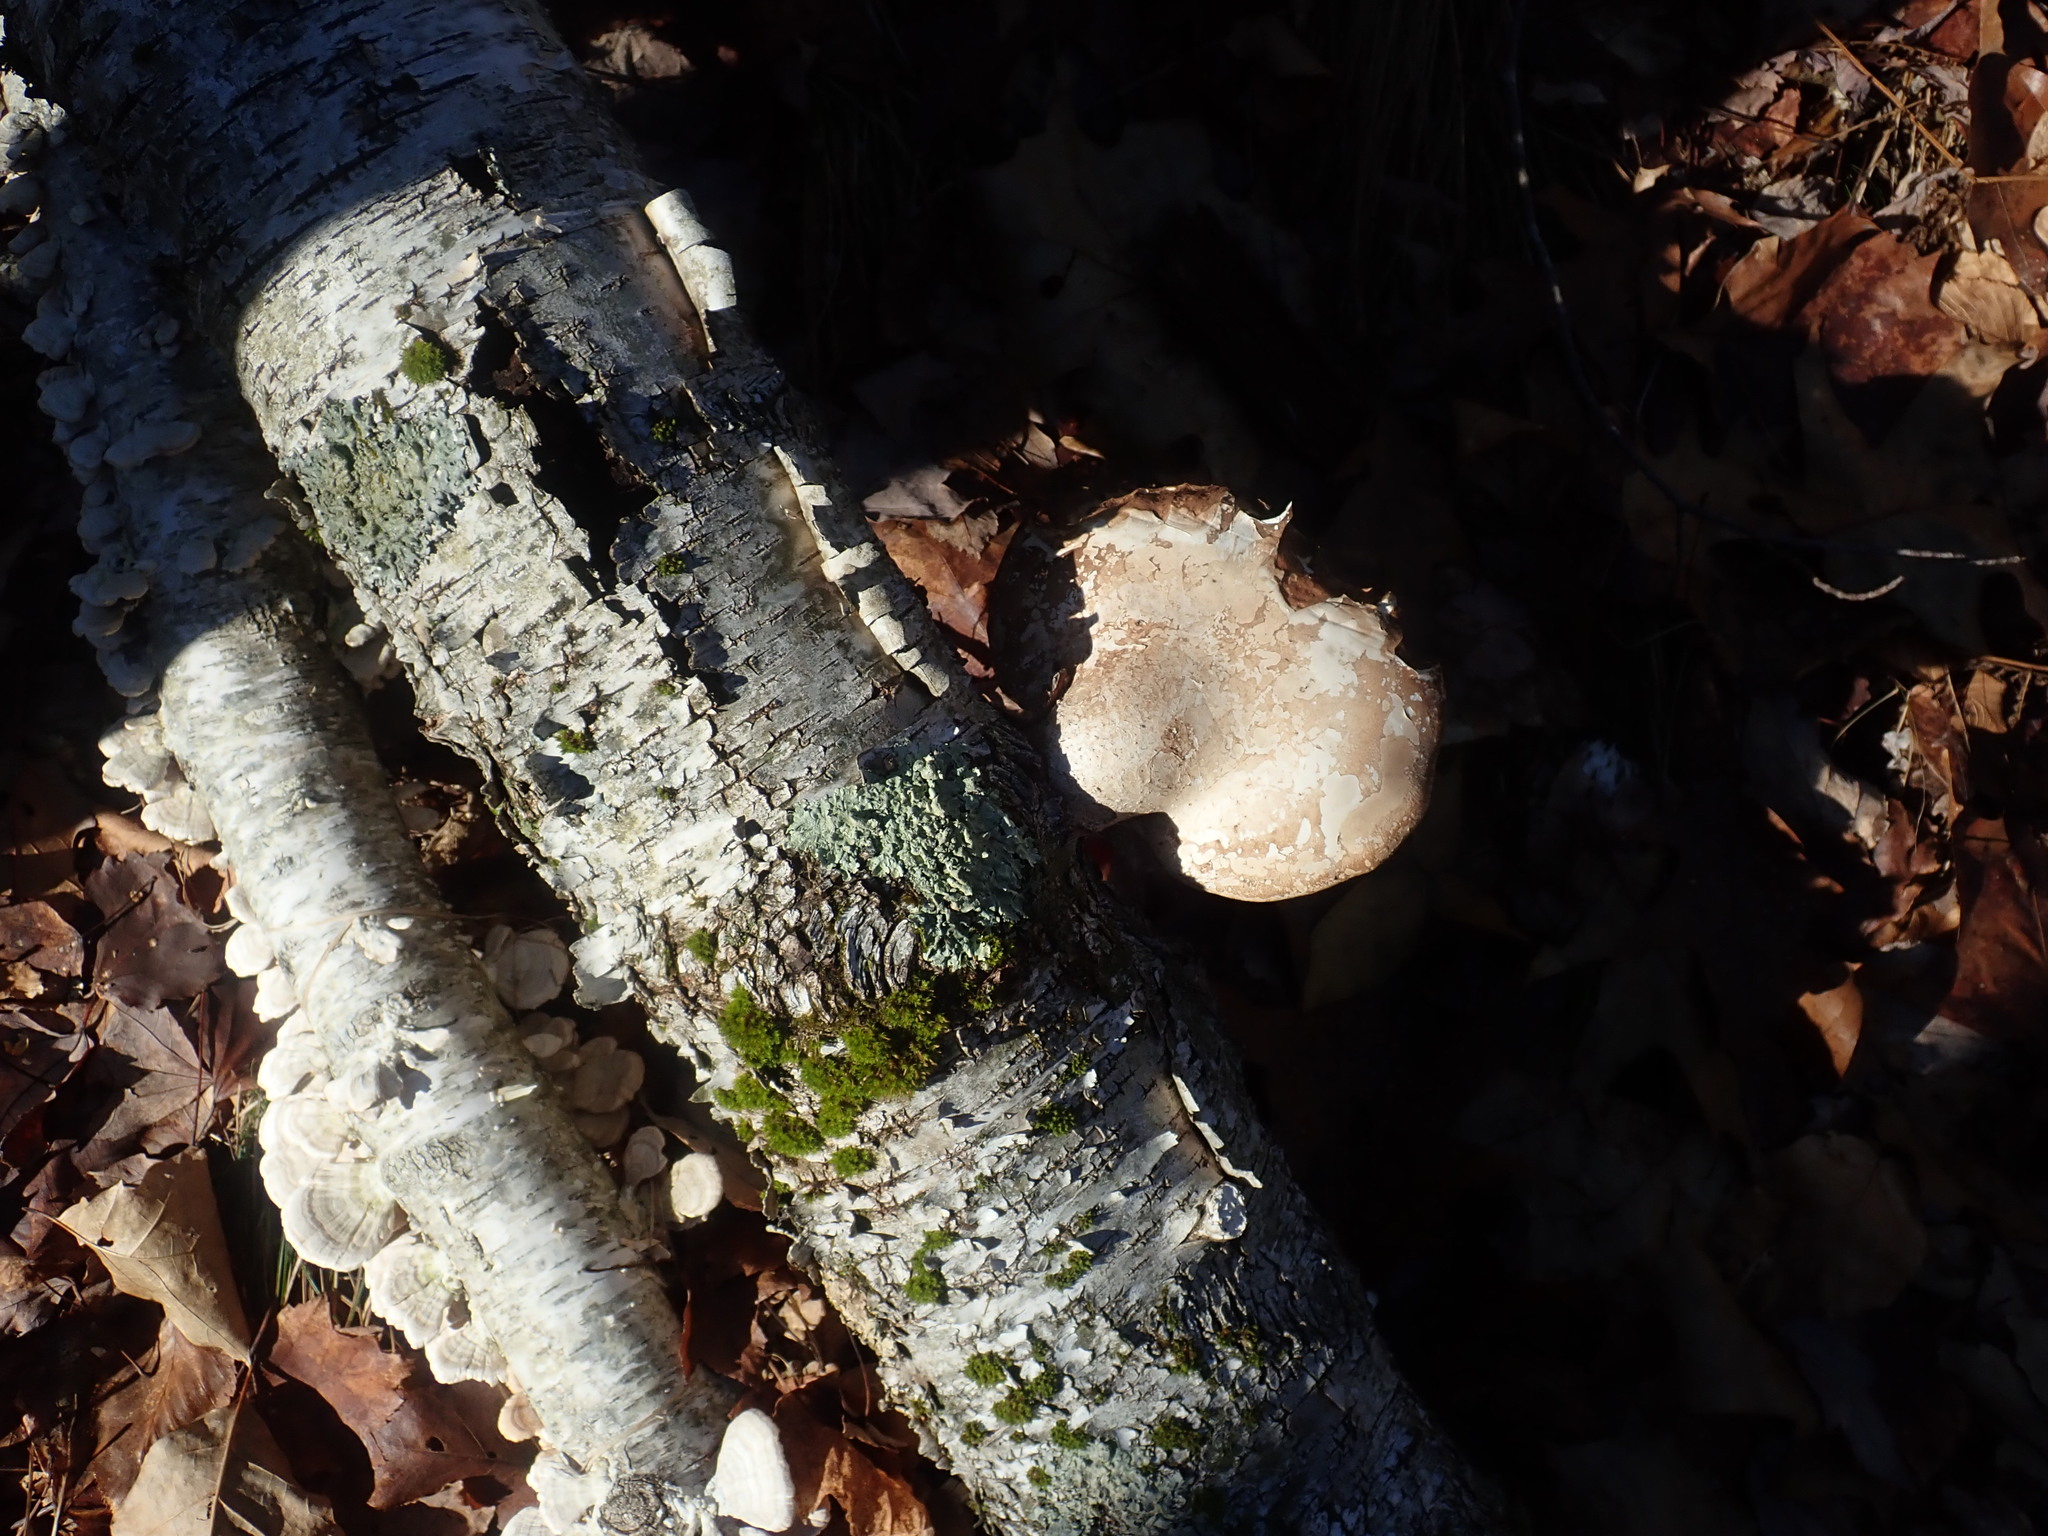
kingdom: Fungi
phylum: Basidiomycota
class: Agaricomycetes
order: Polyporales
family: Fomitopsidaceae
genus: Fomitopsis
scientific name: Fomitopsis betulina
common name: Birch polypore
